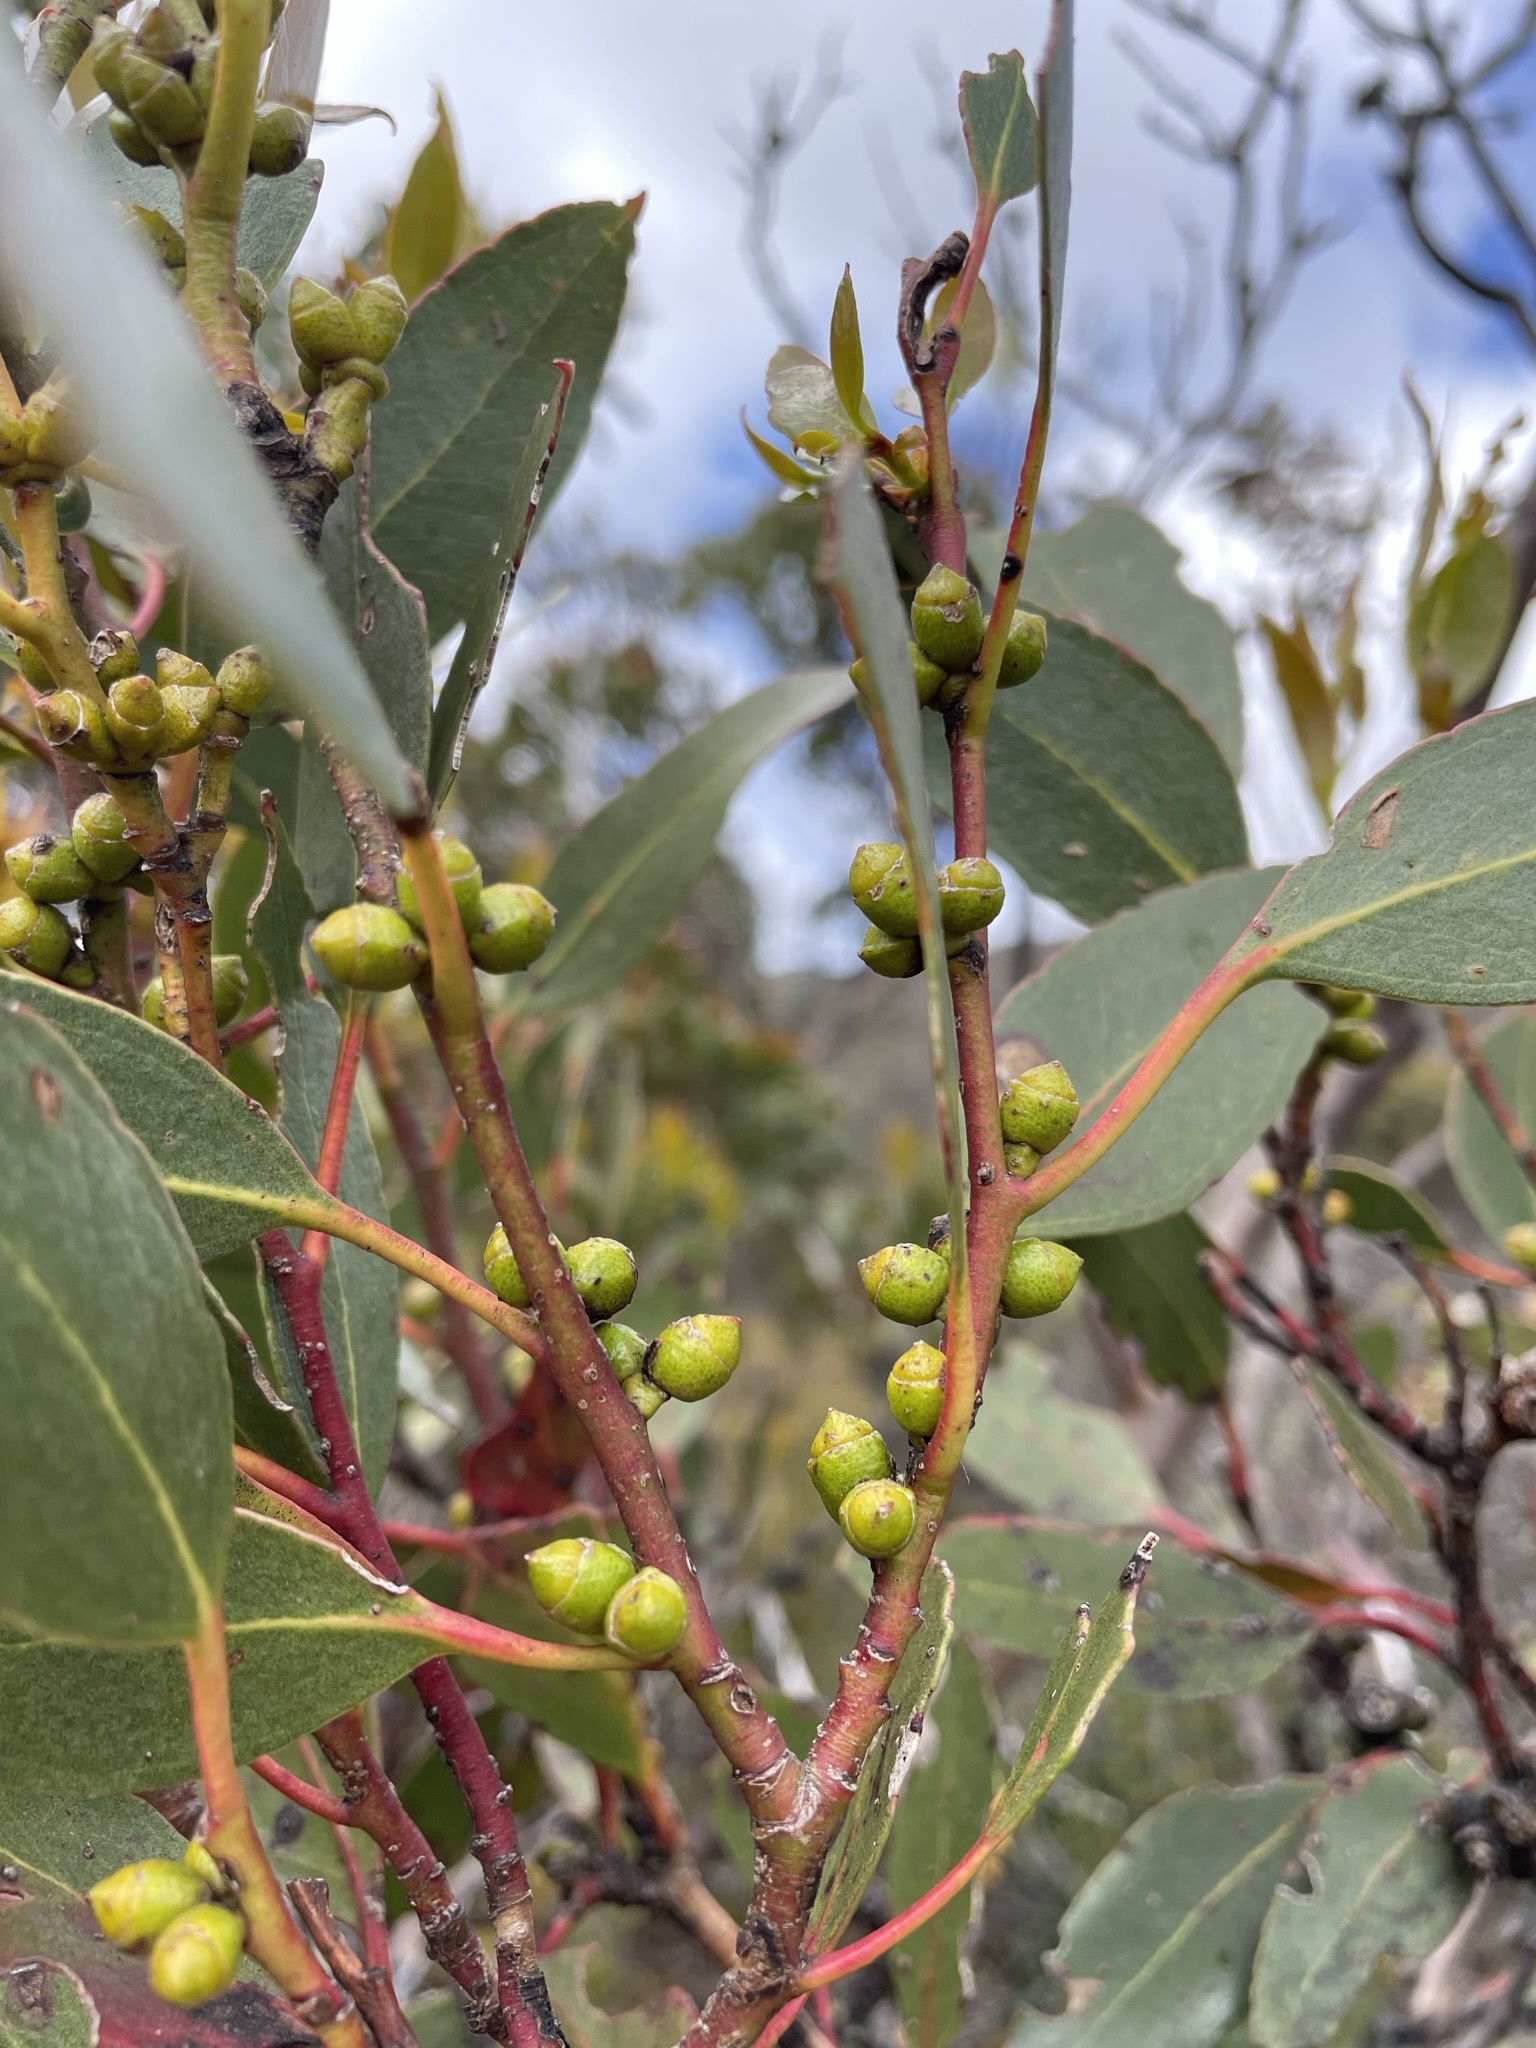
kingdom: Plantae
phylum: Tracheophyta
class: Magnoliopsida
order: Myrtales
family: Myrtaceae
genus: Eucalyptus
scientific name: Eucalyptus subcrenulata
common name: Alpine yellow gum
